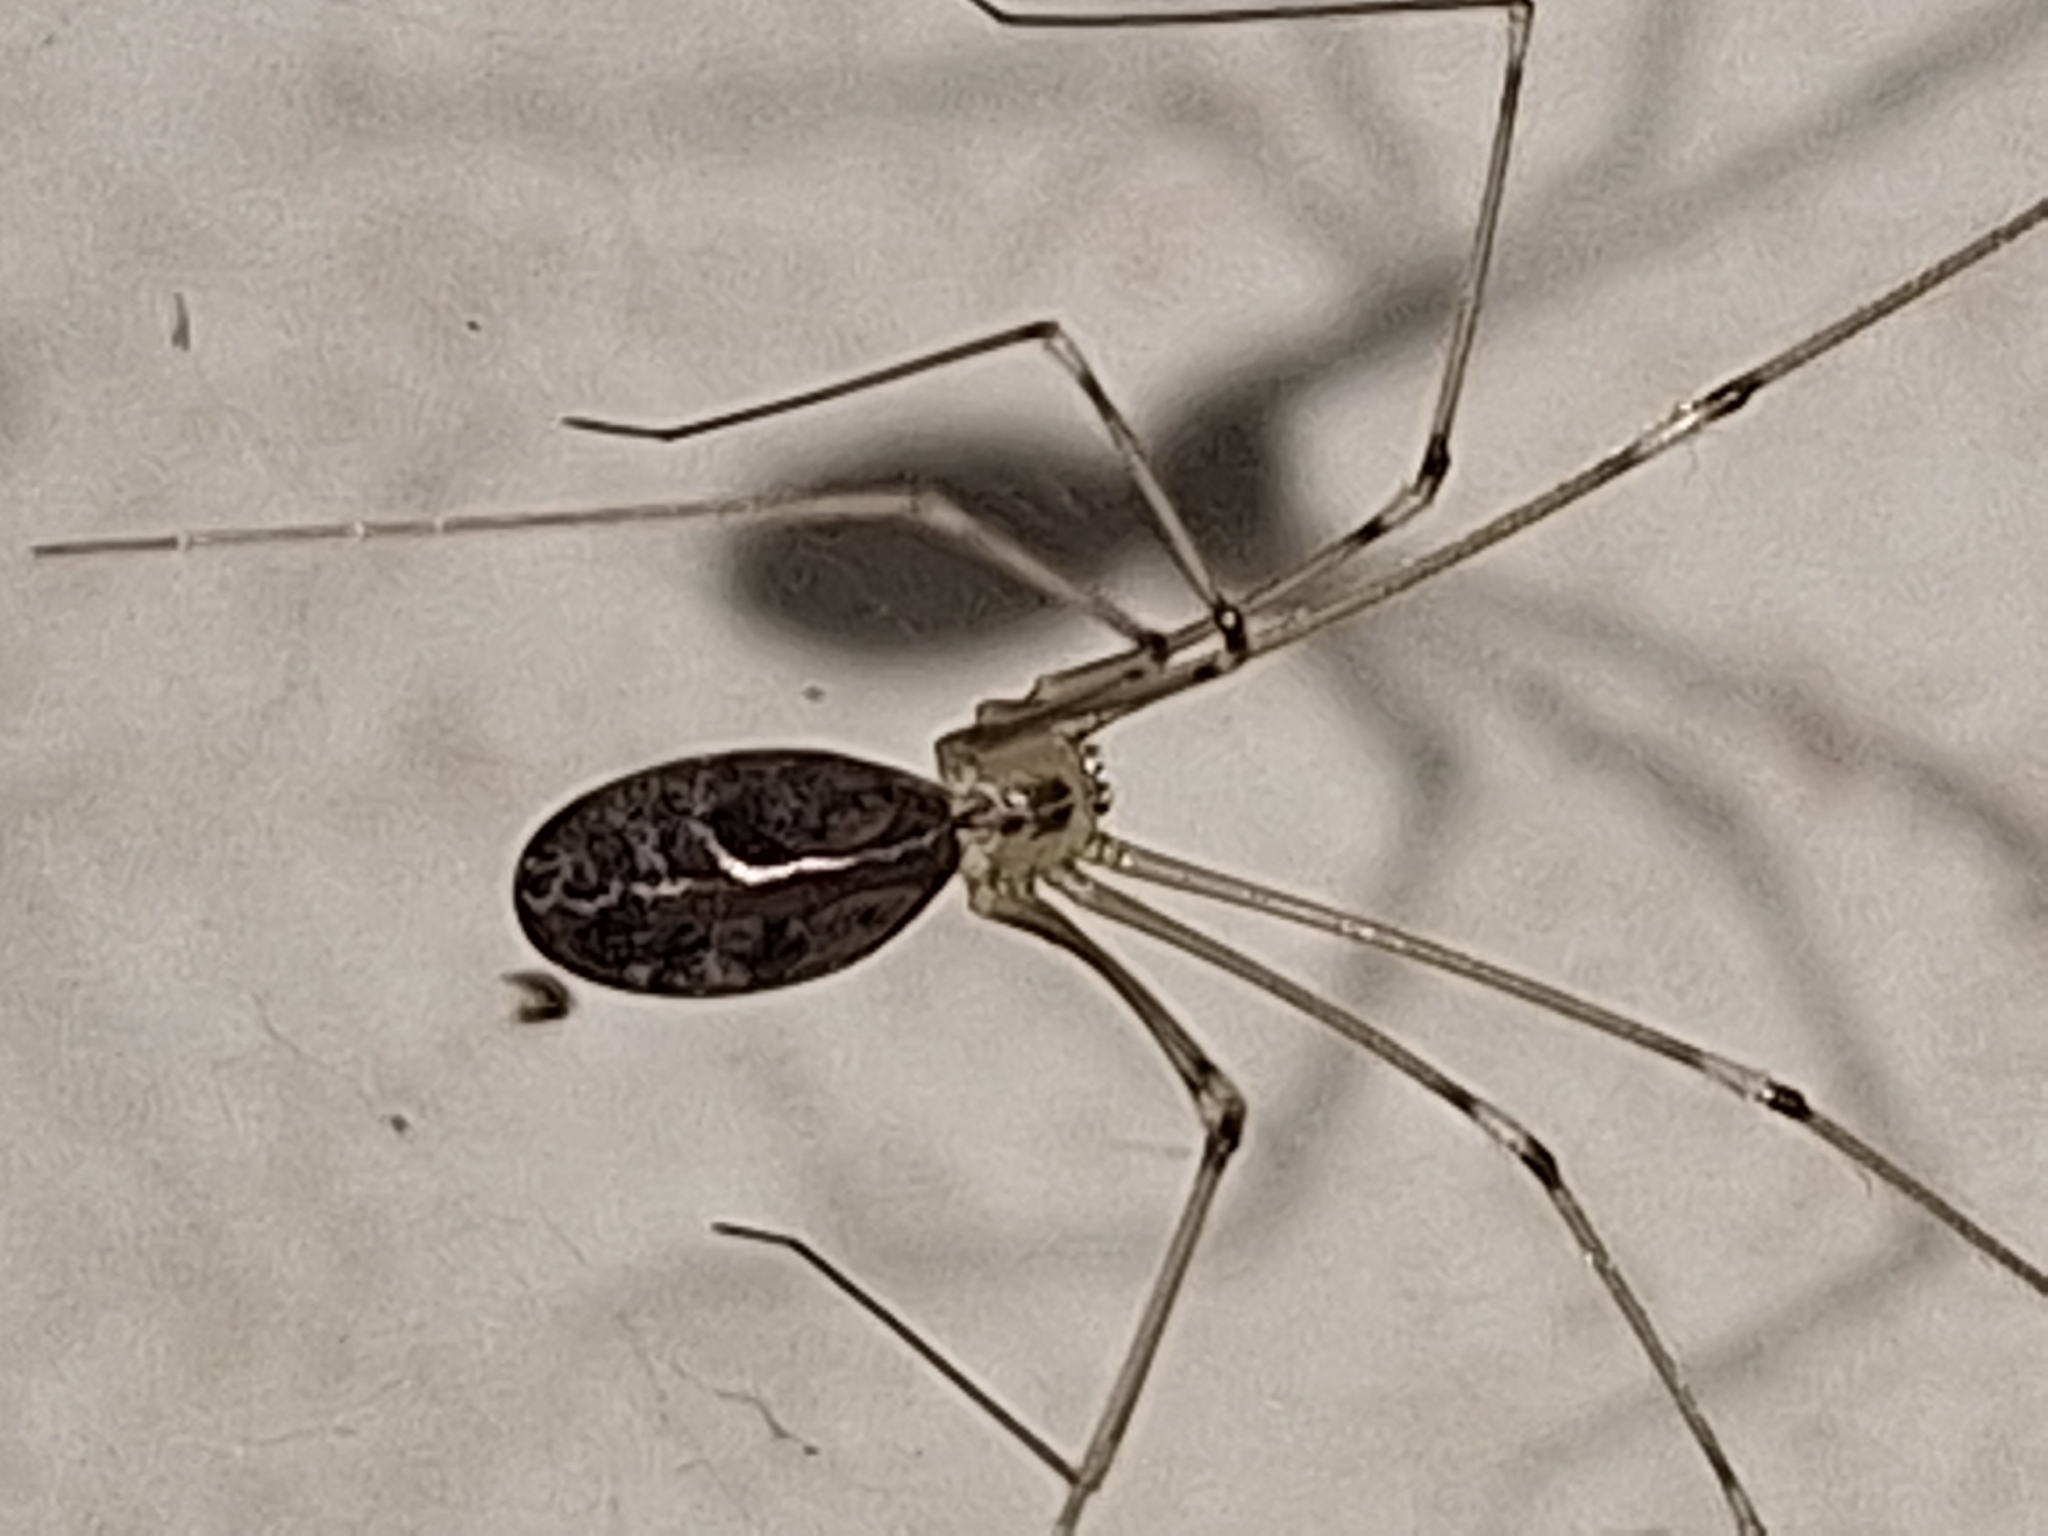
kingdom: Animalia
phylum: Arthropoda
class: Arachnida
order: Araneae
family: Pholcidae
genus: Pholcus
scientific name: Pholcus phalangioides
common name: Longbodied cellar spider
